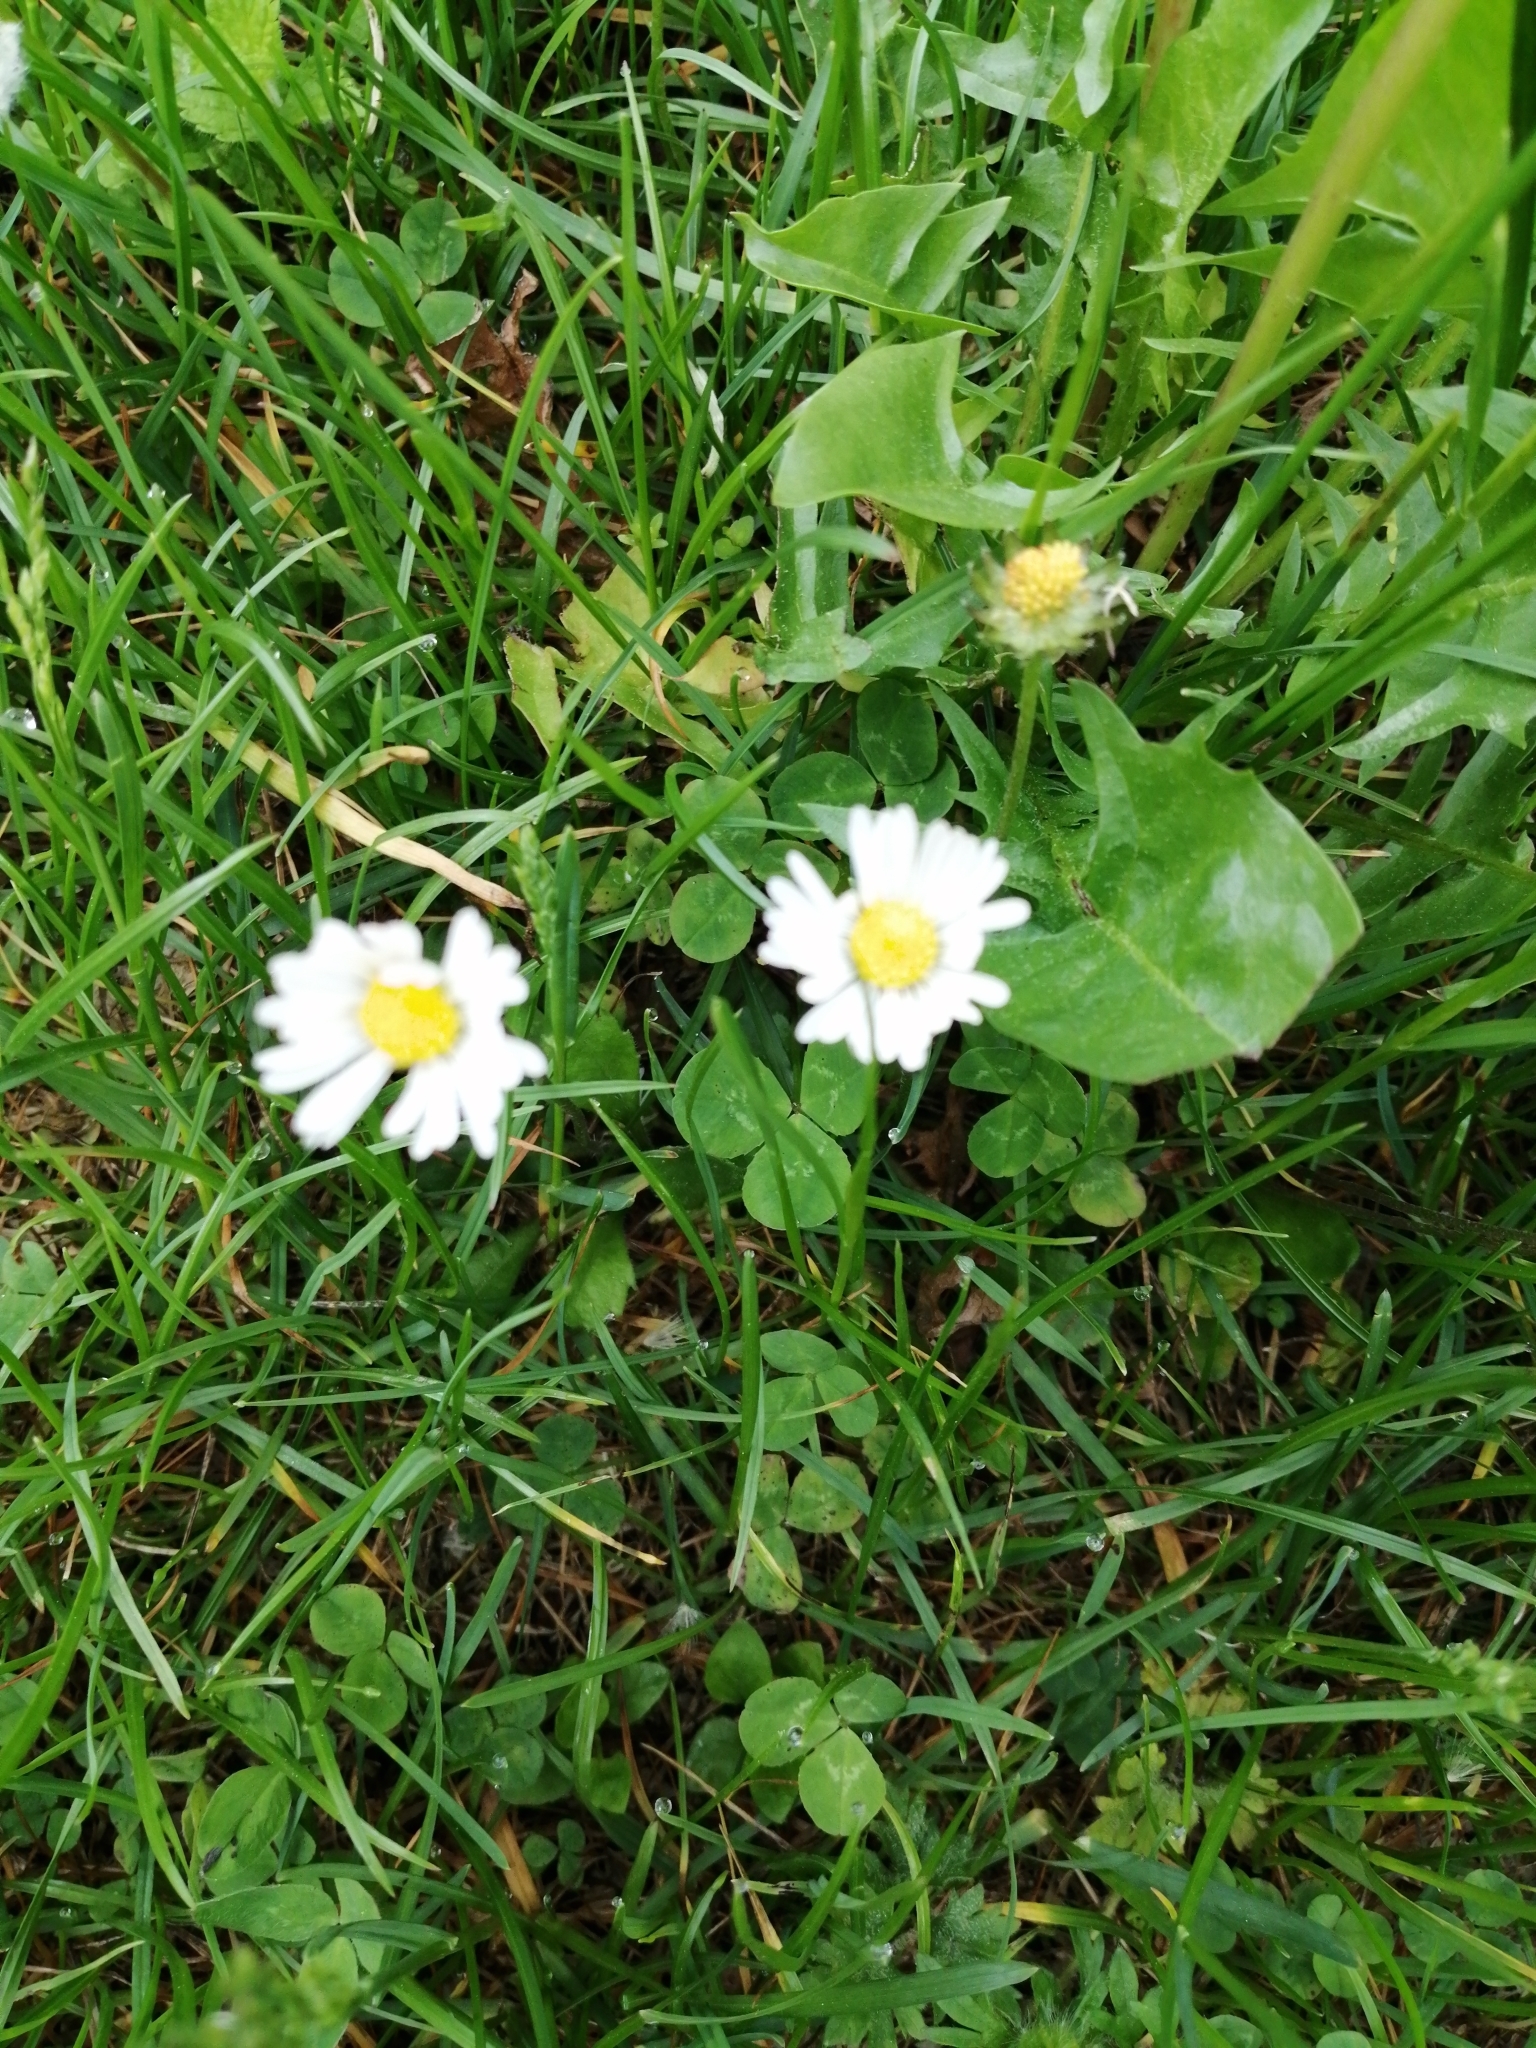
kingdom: Plantae
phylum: Tracheophyta
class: Magnoliopsida
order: Asterales
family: Asteraceae
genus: Bellis
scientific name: Bellis perennis
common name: Lawndaisy
